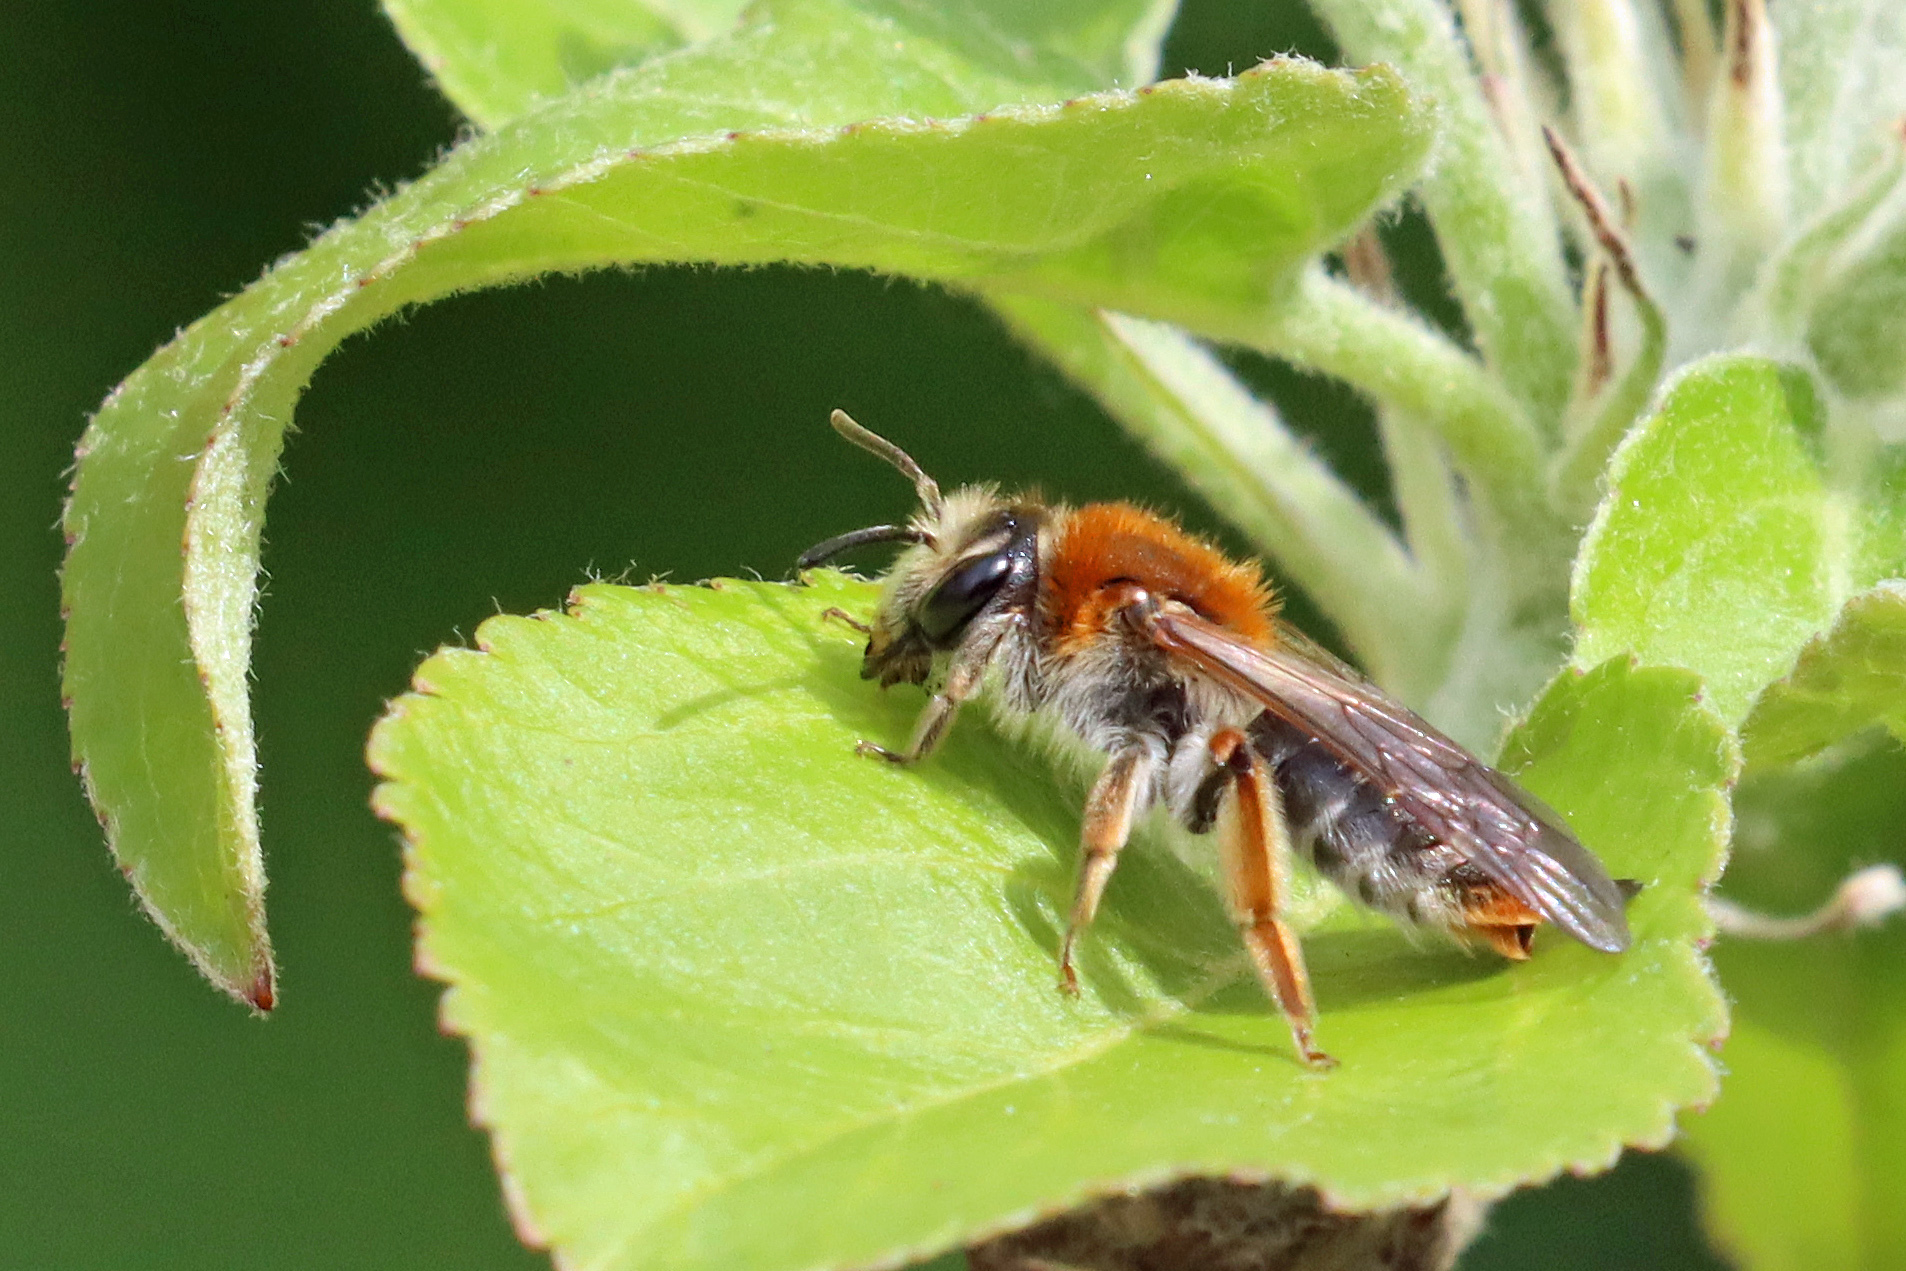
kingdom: Animalia
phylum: Arthropoda
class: Insecta
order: Hymenoptera
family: Andrenidae
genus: Andrena
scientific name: Andrena haemorrhoa
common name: Early mining bee
